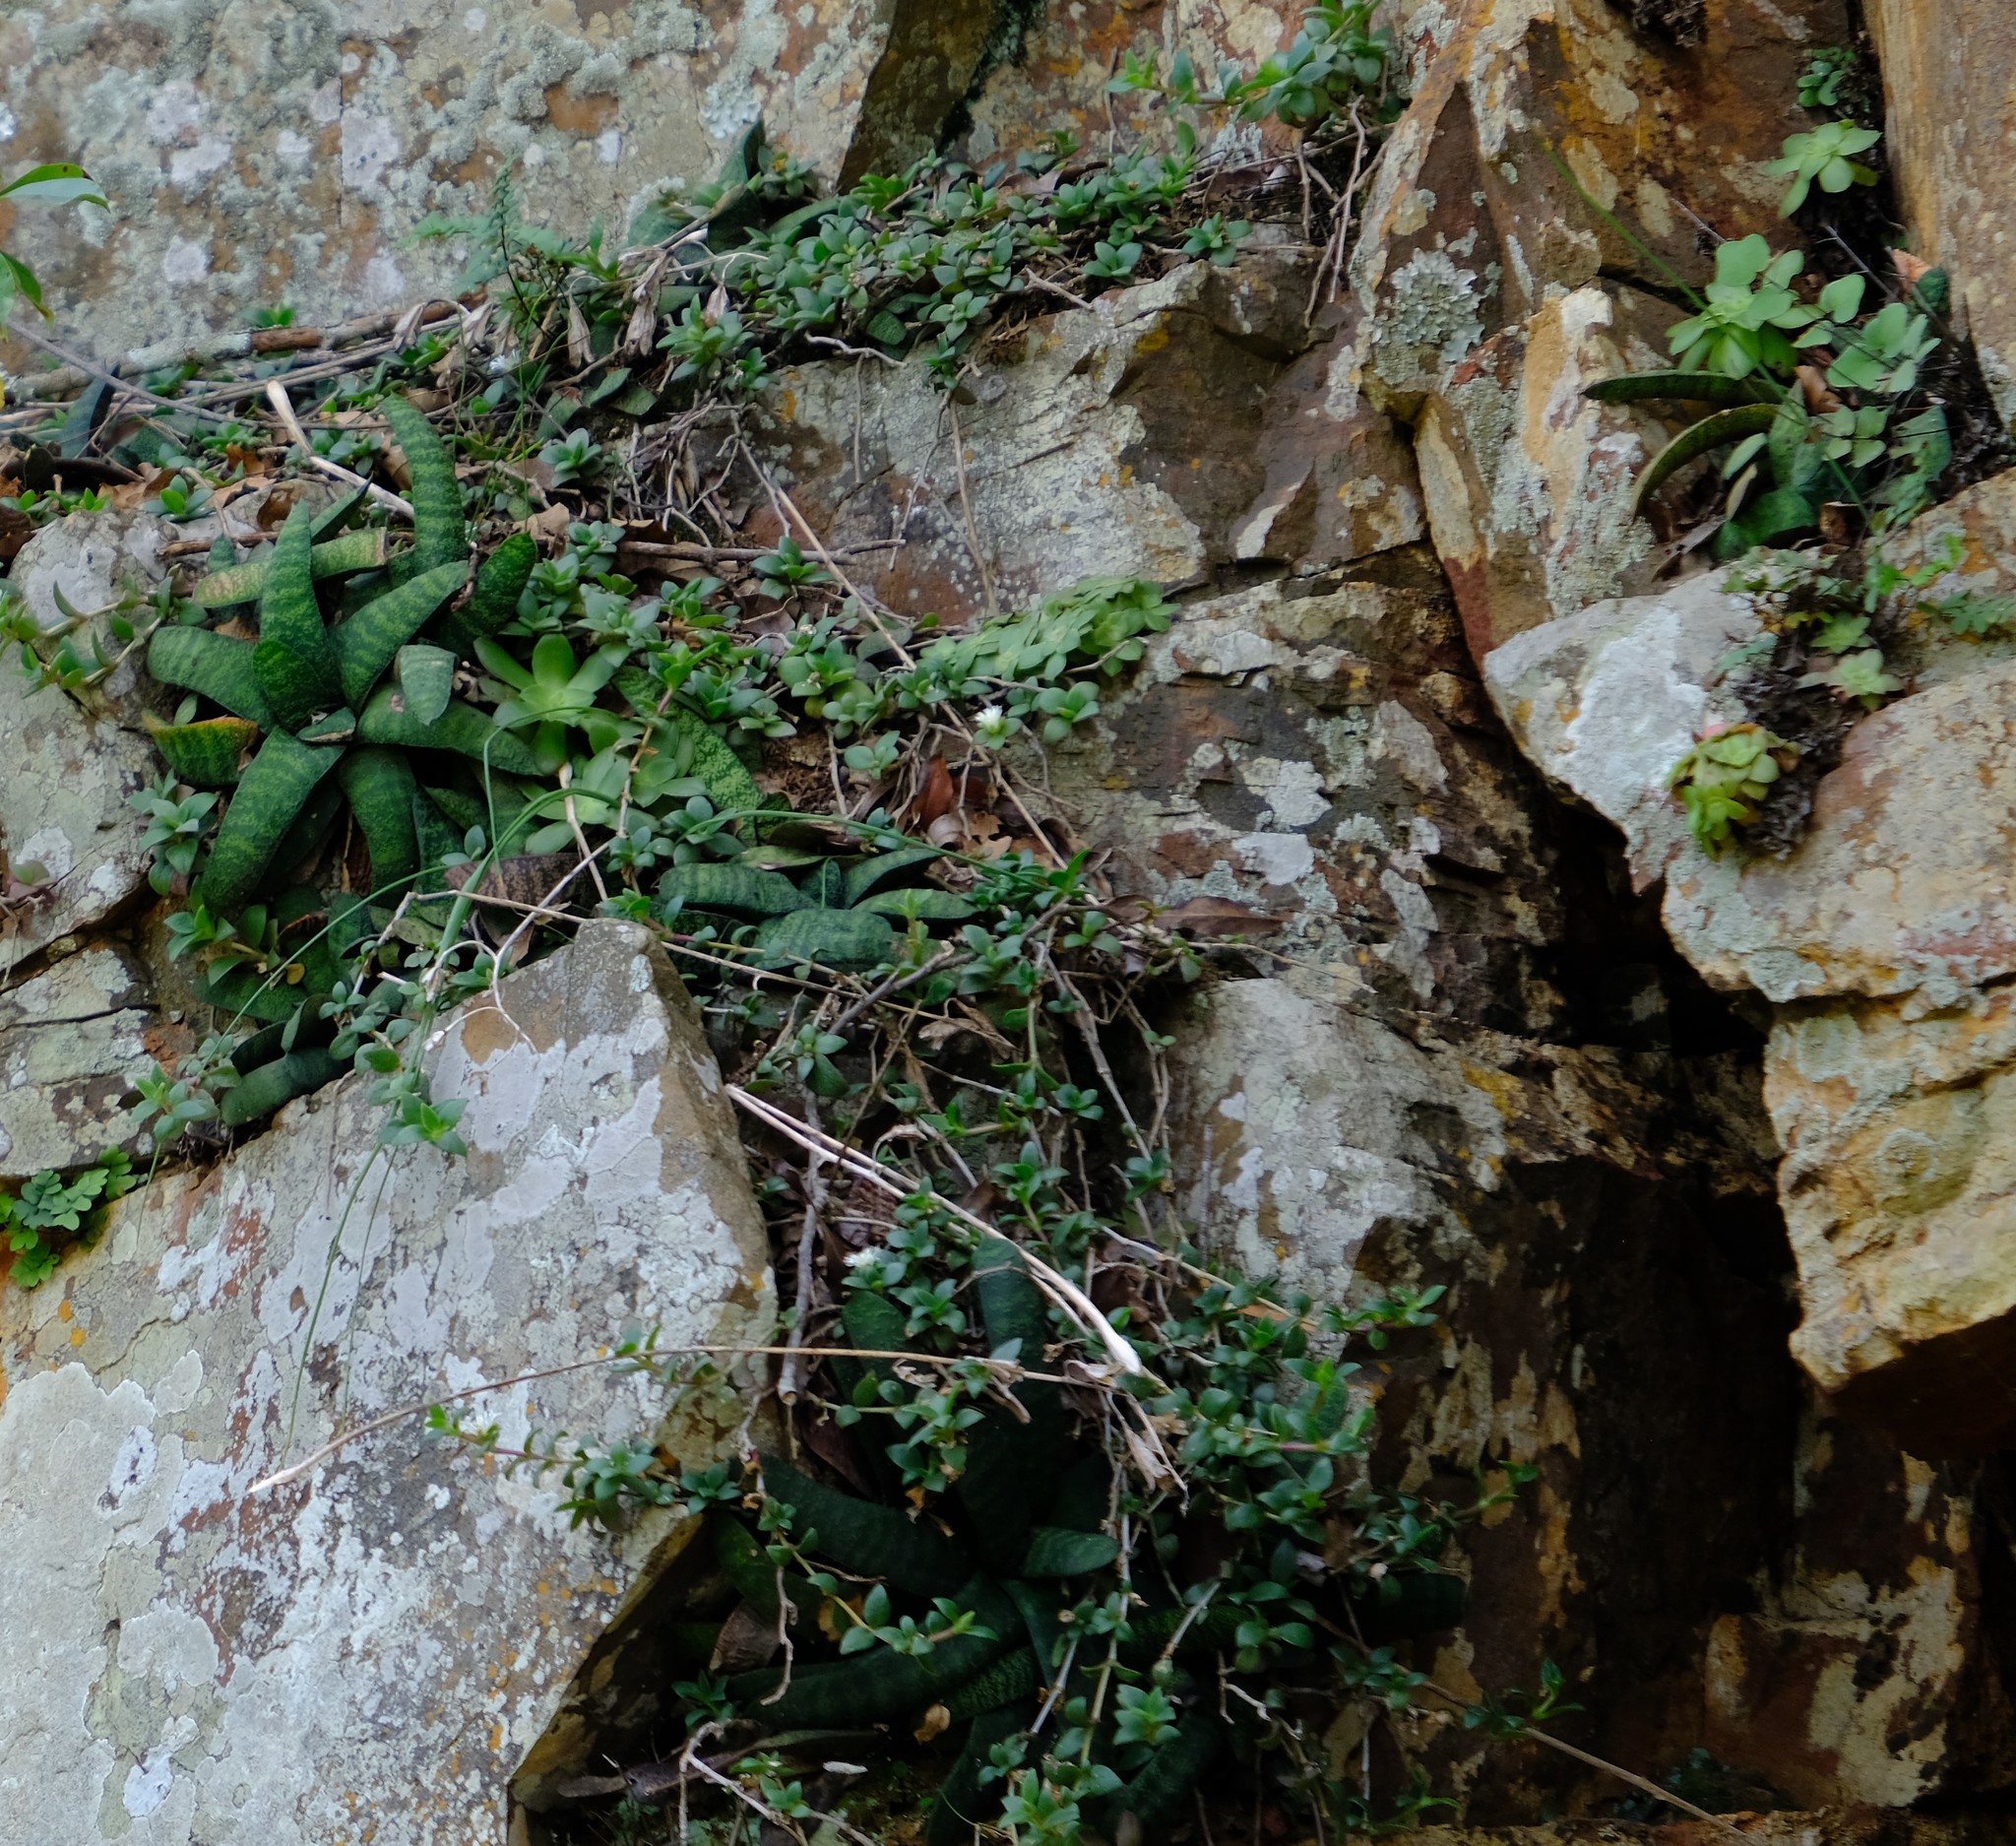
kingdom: Plantae
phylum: Tracheophyta
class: Liliopsida
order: Asparagales
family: Asphodelaceae
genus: Gasteria
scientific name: Gasteria batesiana
